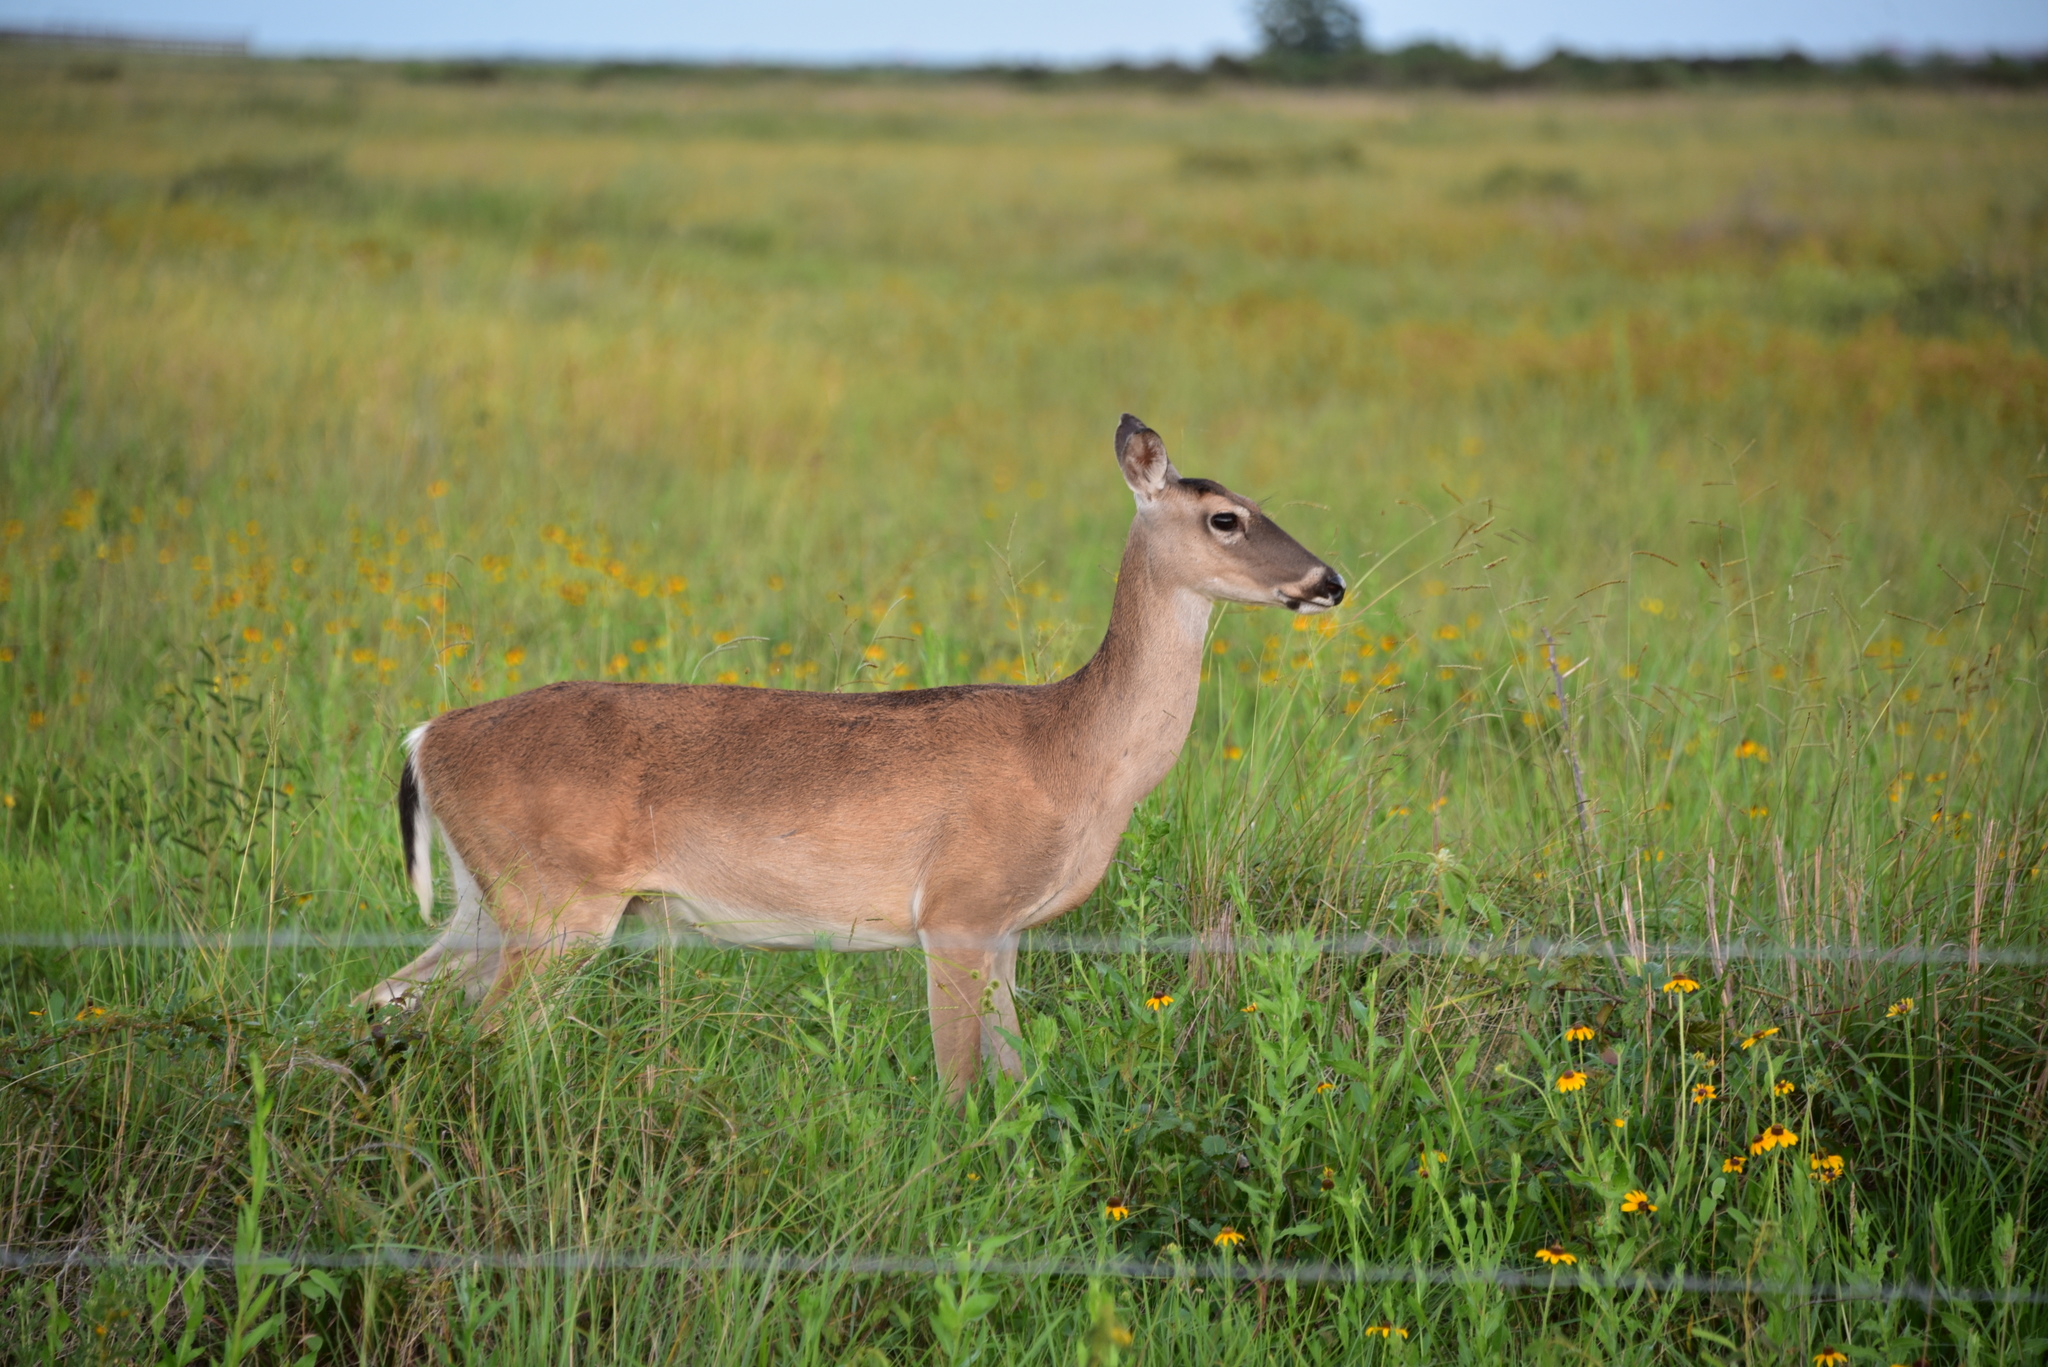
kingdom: Animalia
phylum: Chordata
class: Mammalia
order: Artiodactyla
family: Cervidae
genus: Odocoileus
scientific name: Odocoileus virginianus
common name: White-tailed deer
